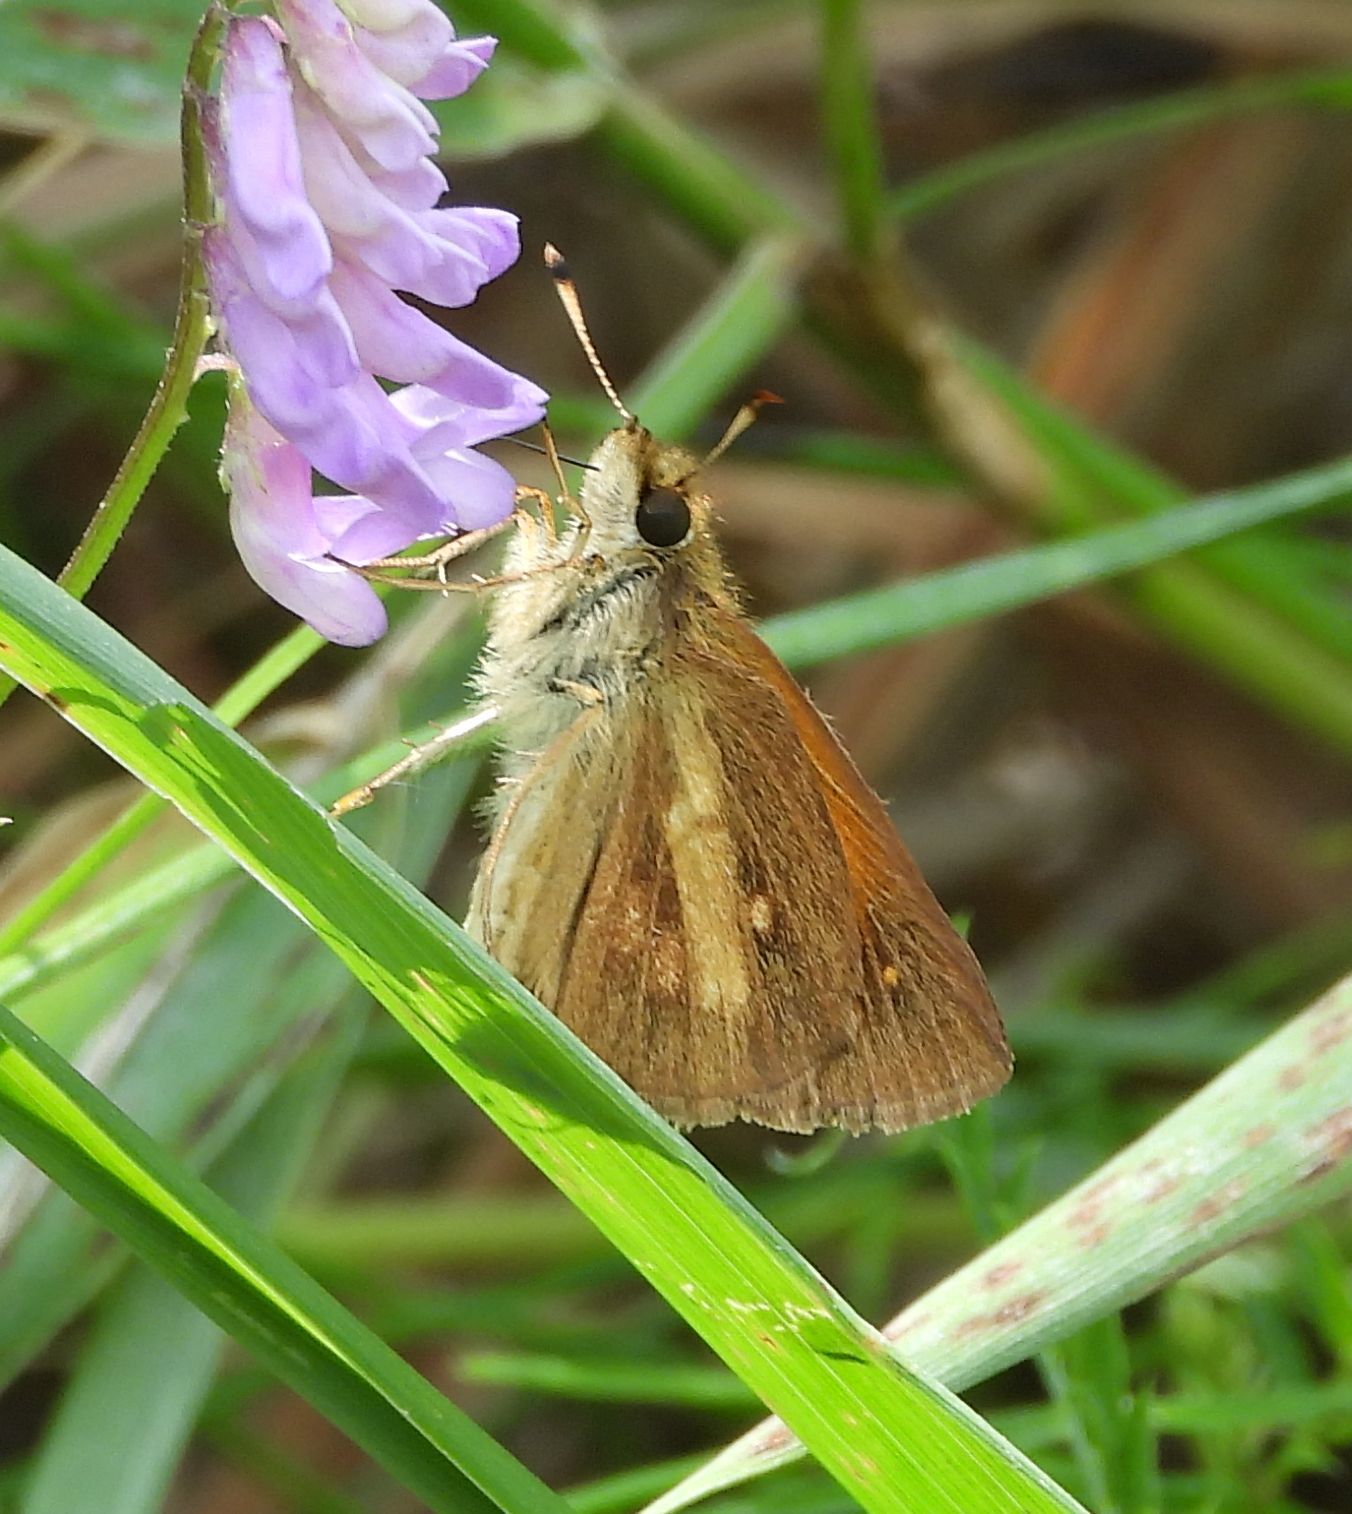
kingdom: Animalia
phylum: Arthropoda
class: Insecta
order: Lepidoptera
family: Hesperiidae
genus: Poanes
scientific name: Poanes viator
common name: Broad-winged skipper
